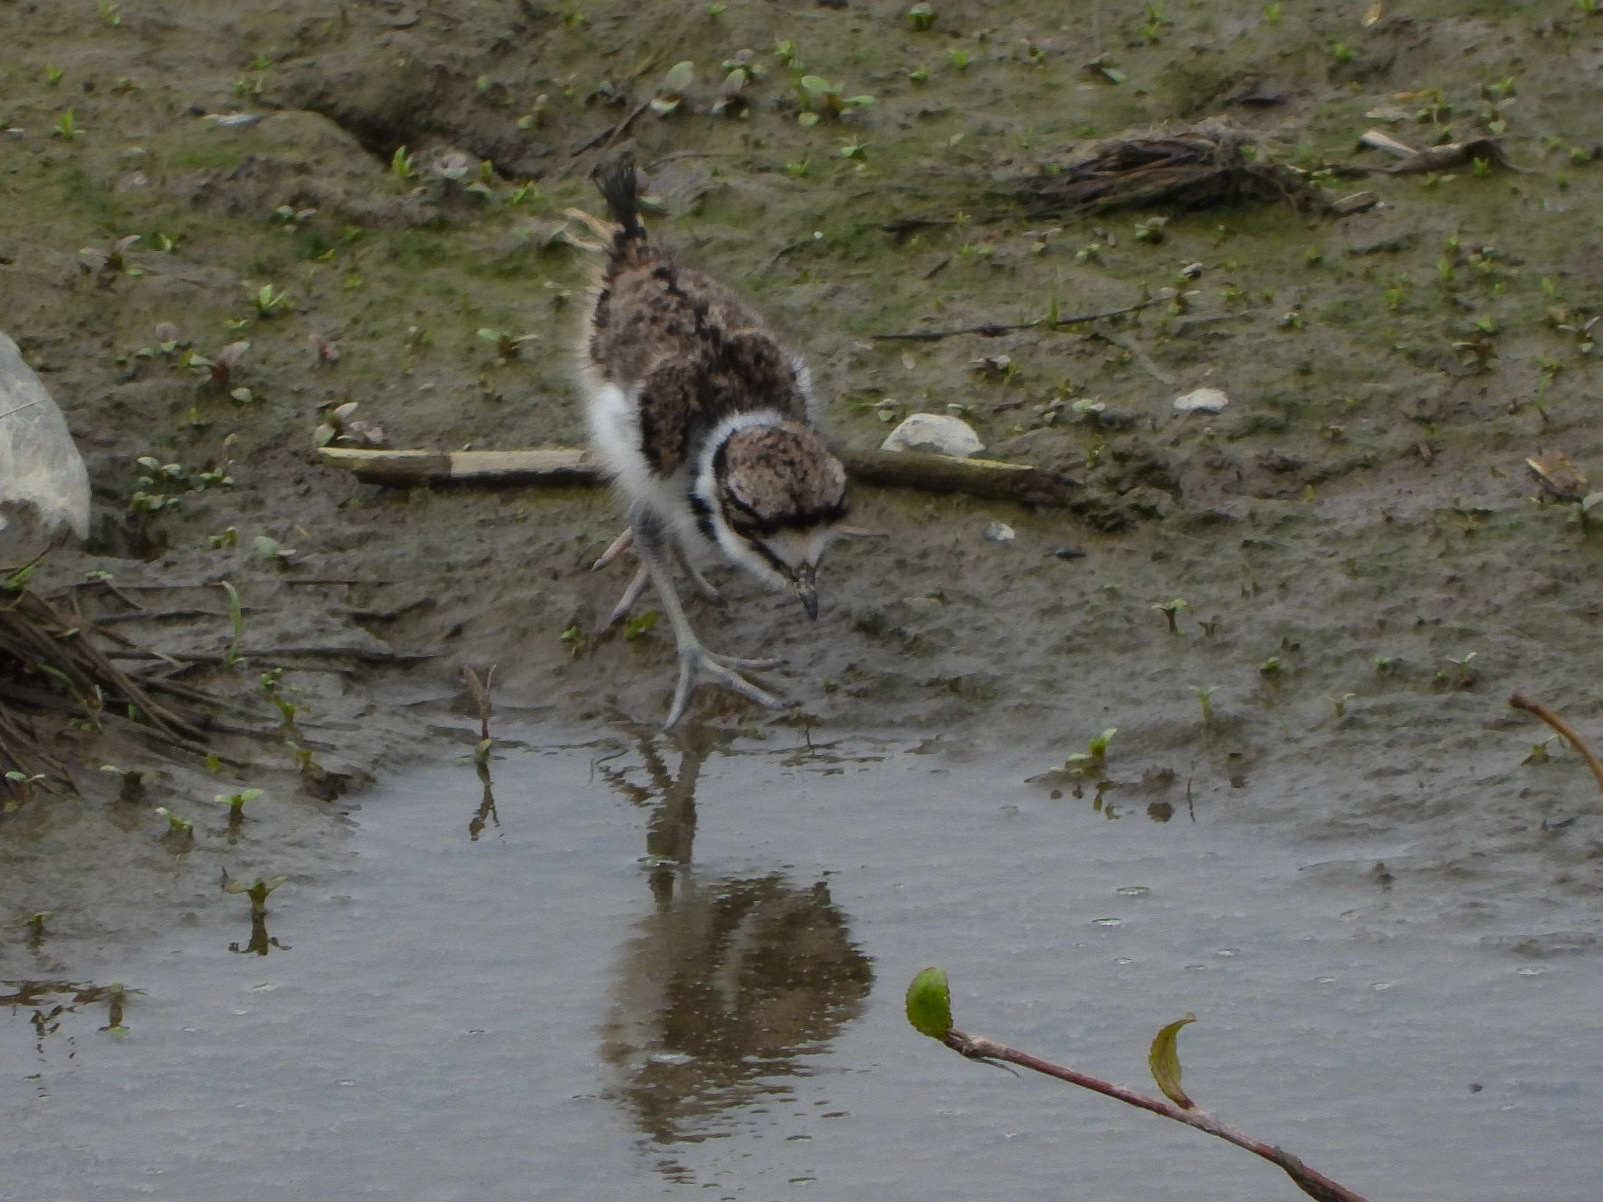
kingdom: Animalia
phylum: Chordata
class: Aves
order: Charadriiformes
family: Charadriidae
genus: Charadrius
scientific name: Charadrius vociferus
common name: Killdeer
